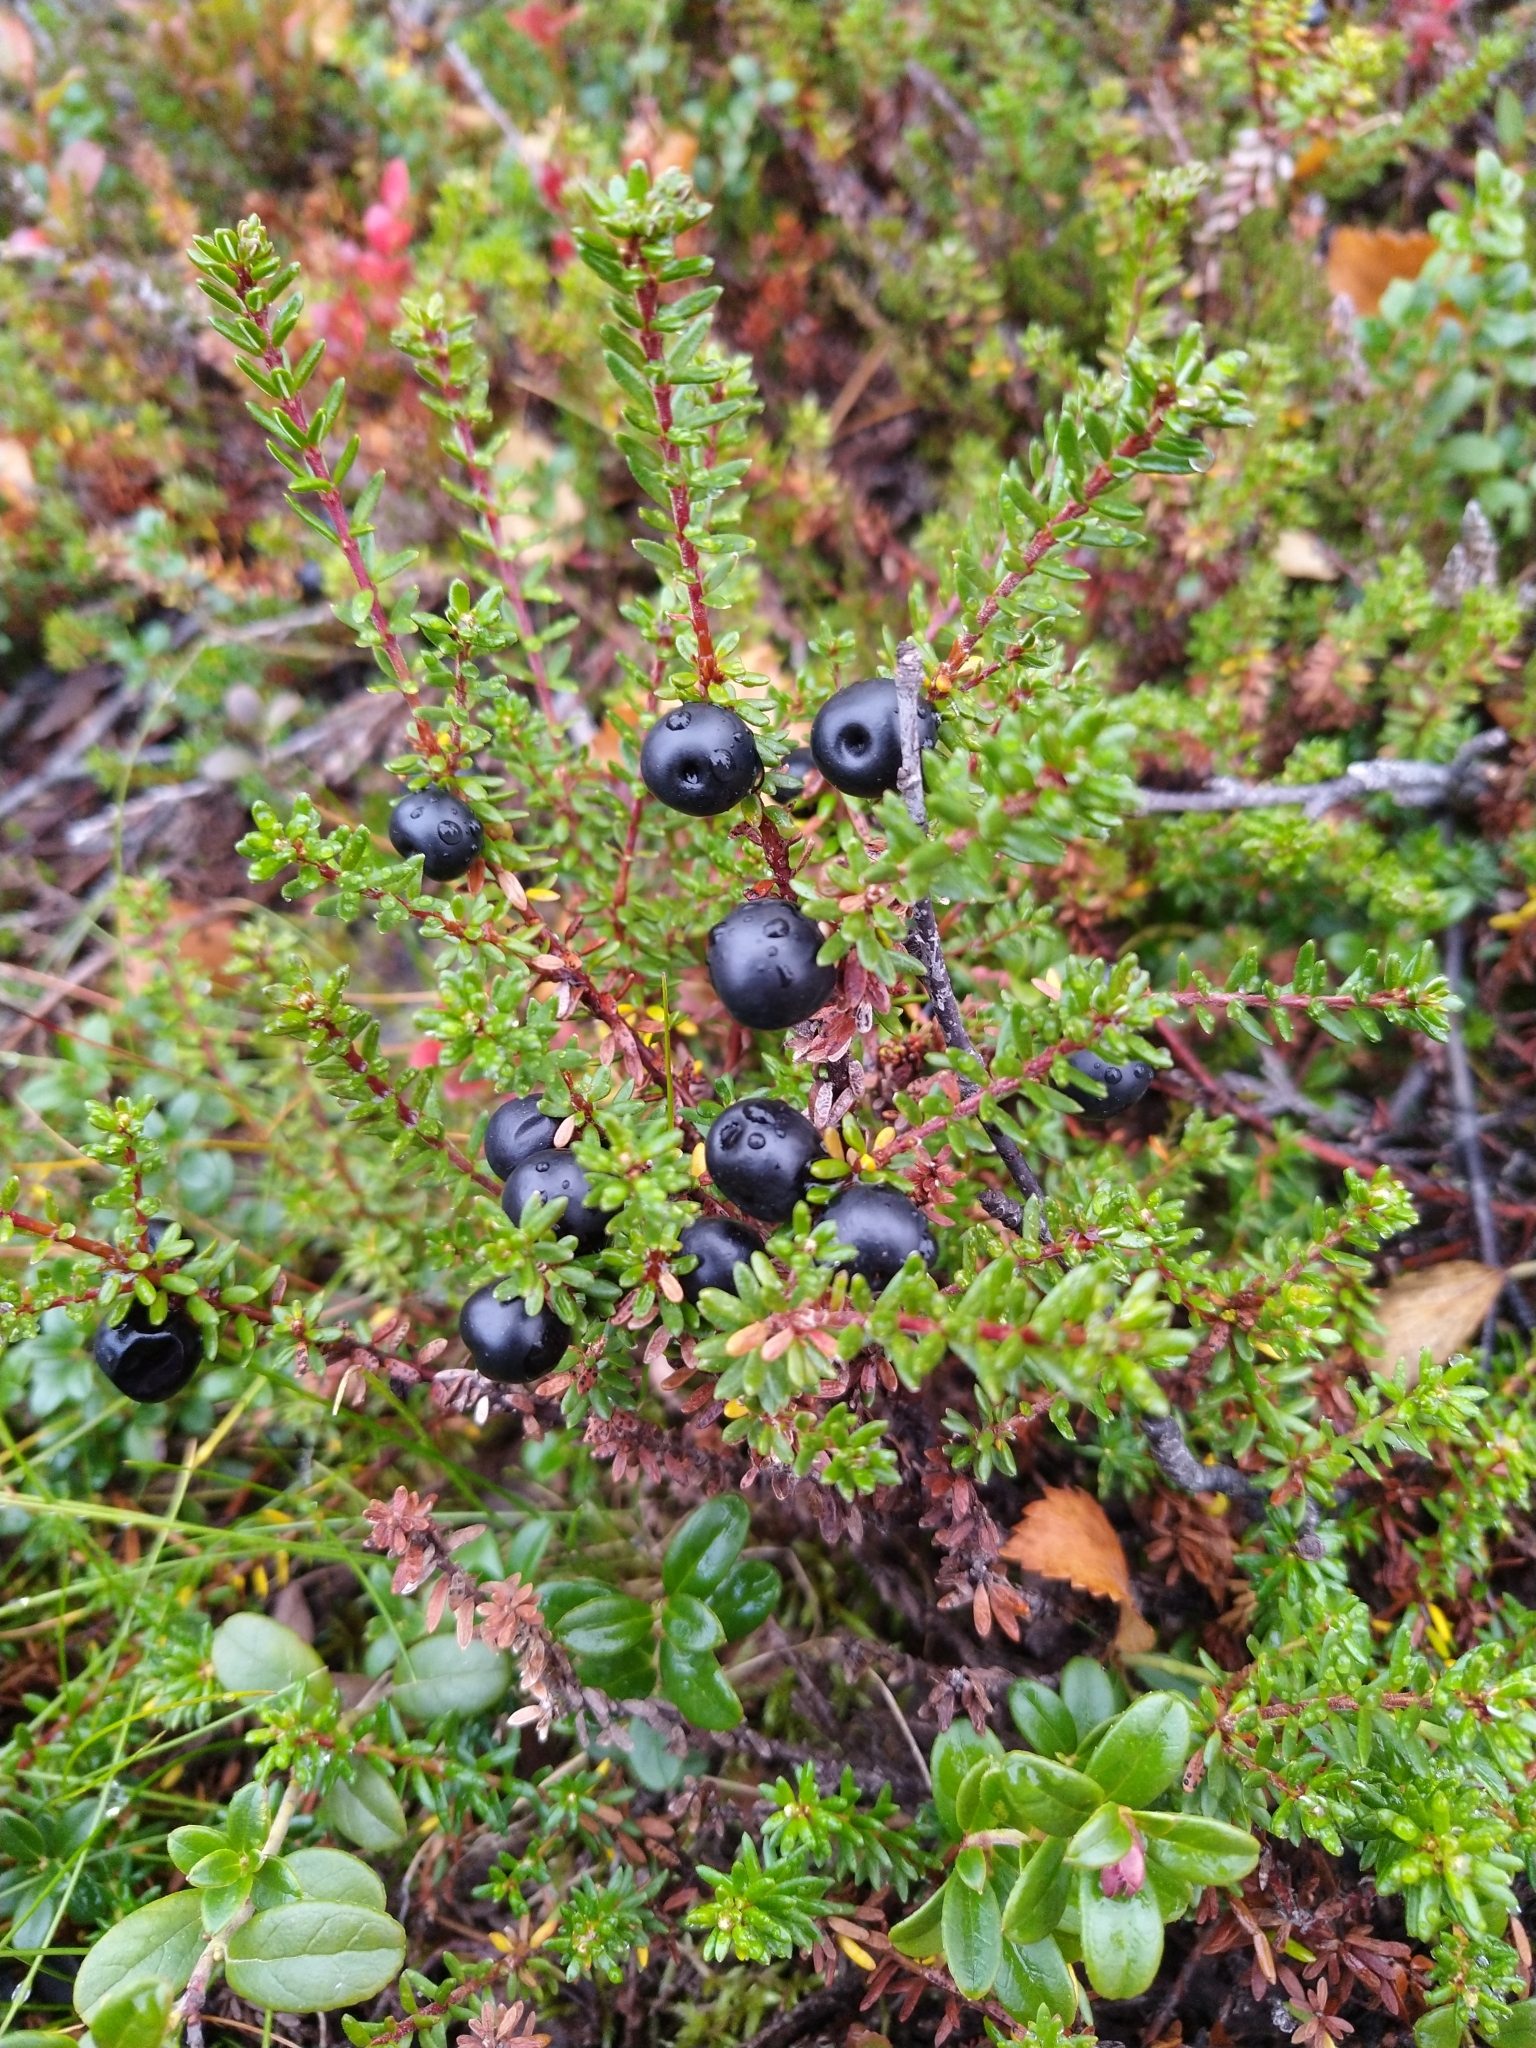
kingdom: Plantae
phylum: Tracheophyta
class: Magnoliopsida
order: Ericales
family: Ericaceae
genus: Empetrum
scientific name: Empetrum nigrum
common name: Black crowberry
